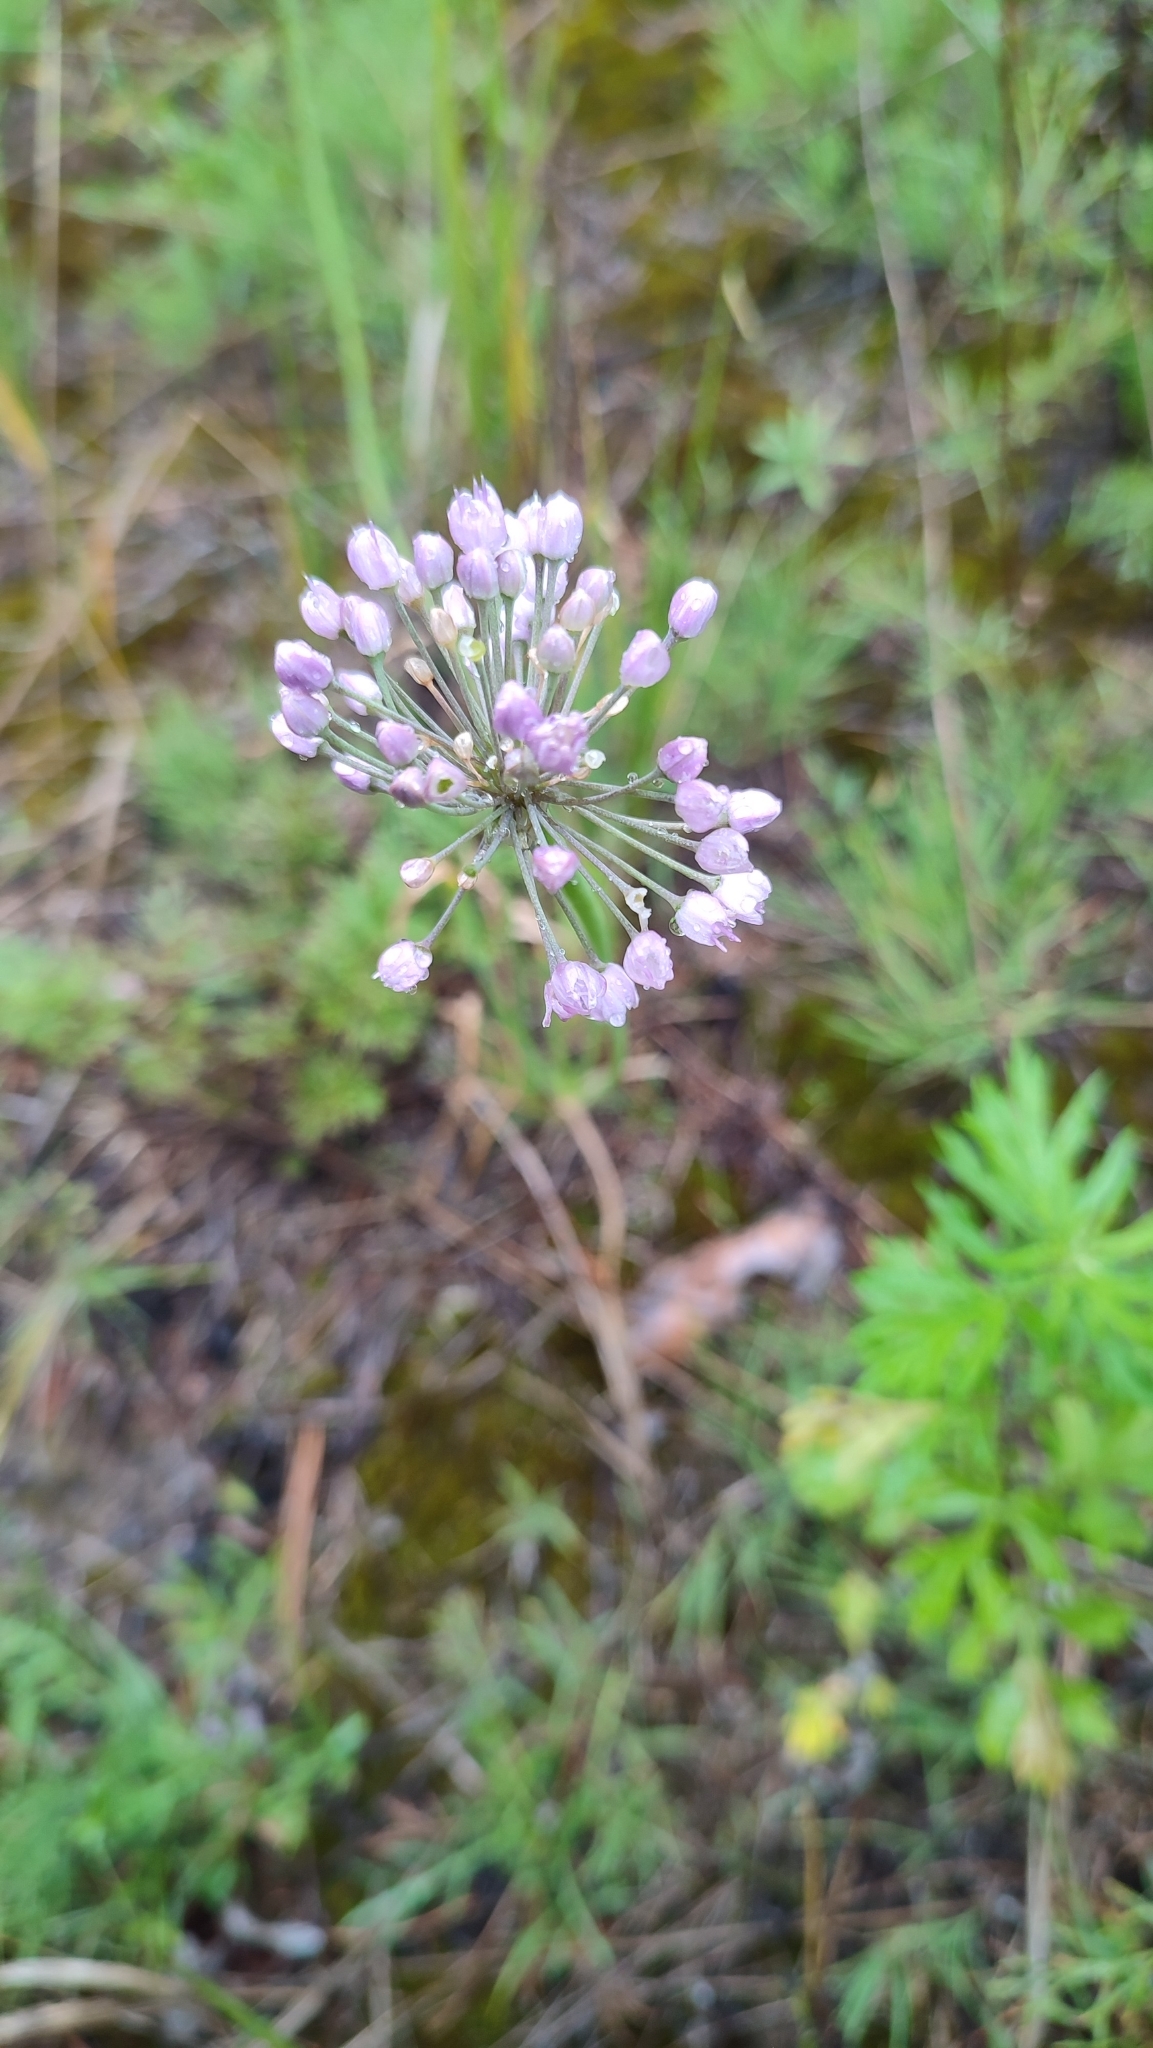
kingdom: Plantae
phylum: Tracheophyta
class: Liliopsida
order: Asparagales
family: Amaryllidaceae
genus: Allium
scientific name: Allium burjaticum
